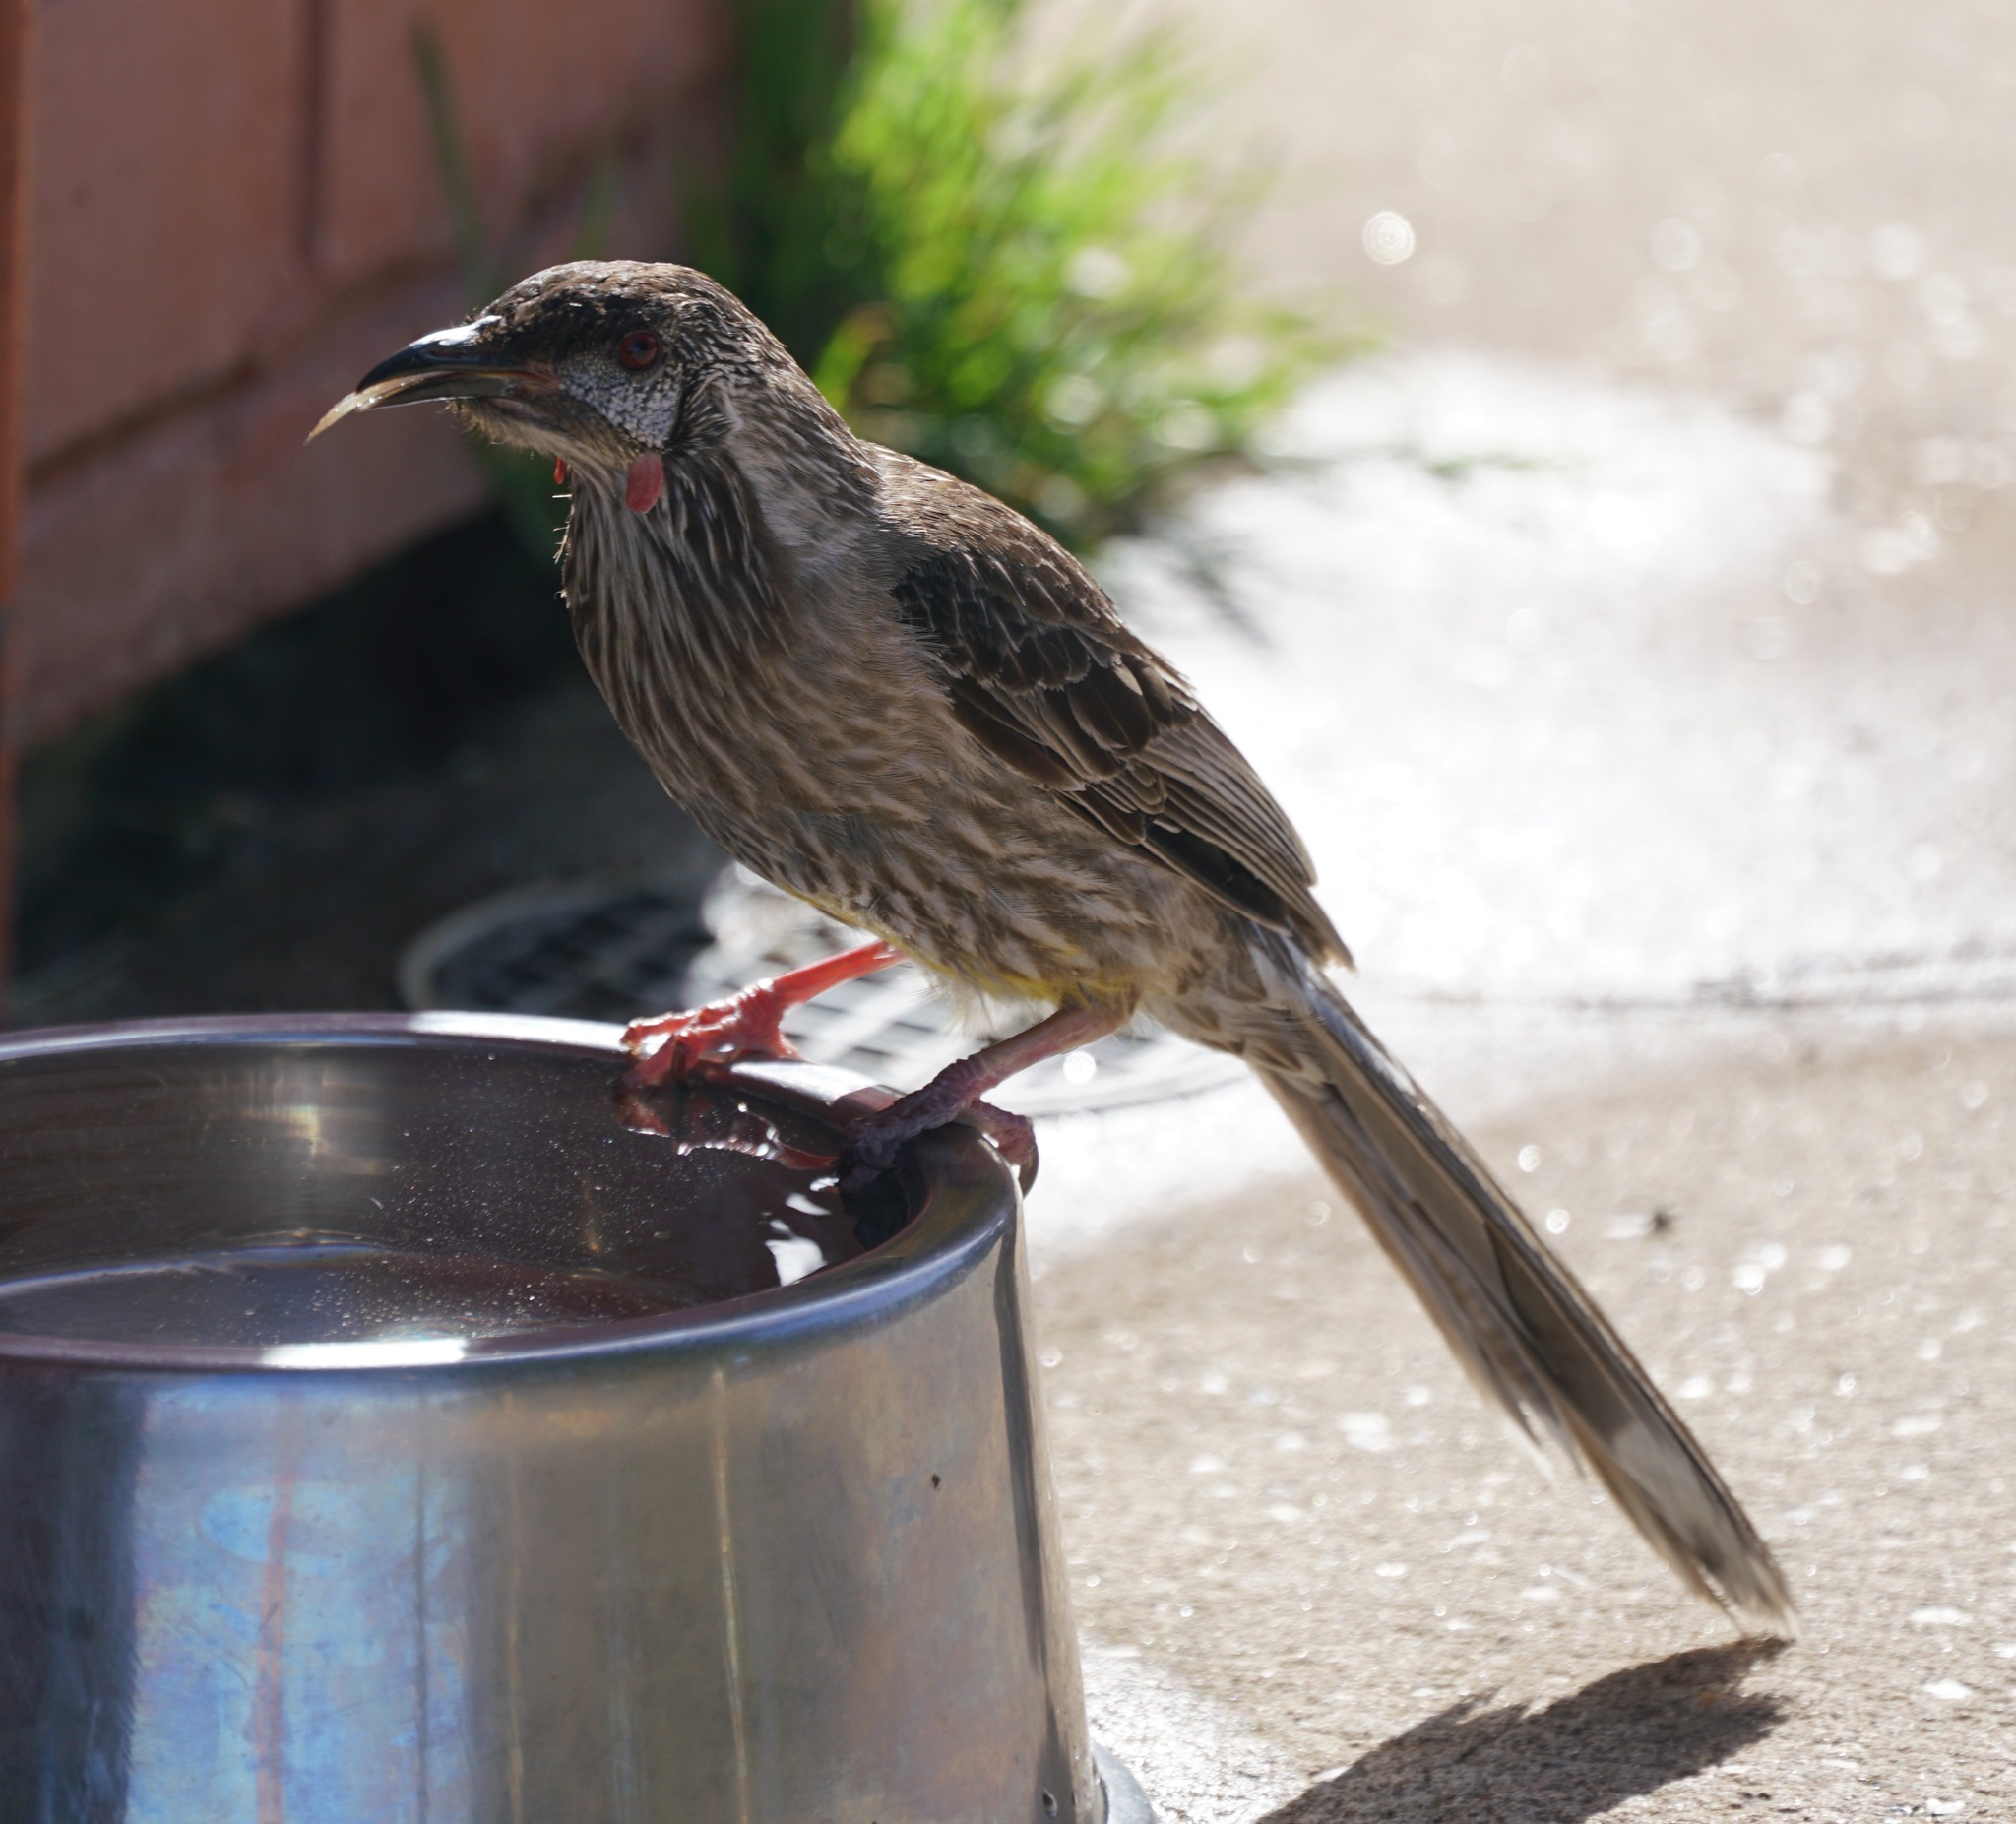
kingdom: Animalia
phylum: Chordata
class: Aves
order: Passeriformes
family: Meliphagidae
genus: Anthochaera
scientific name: Anthochaera carunculata
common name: Red wattlebird
